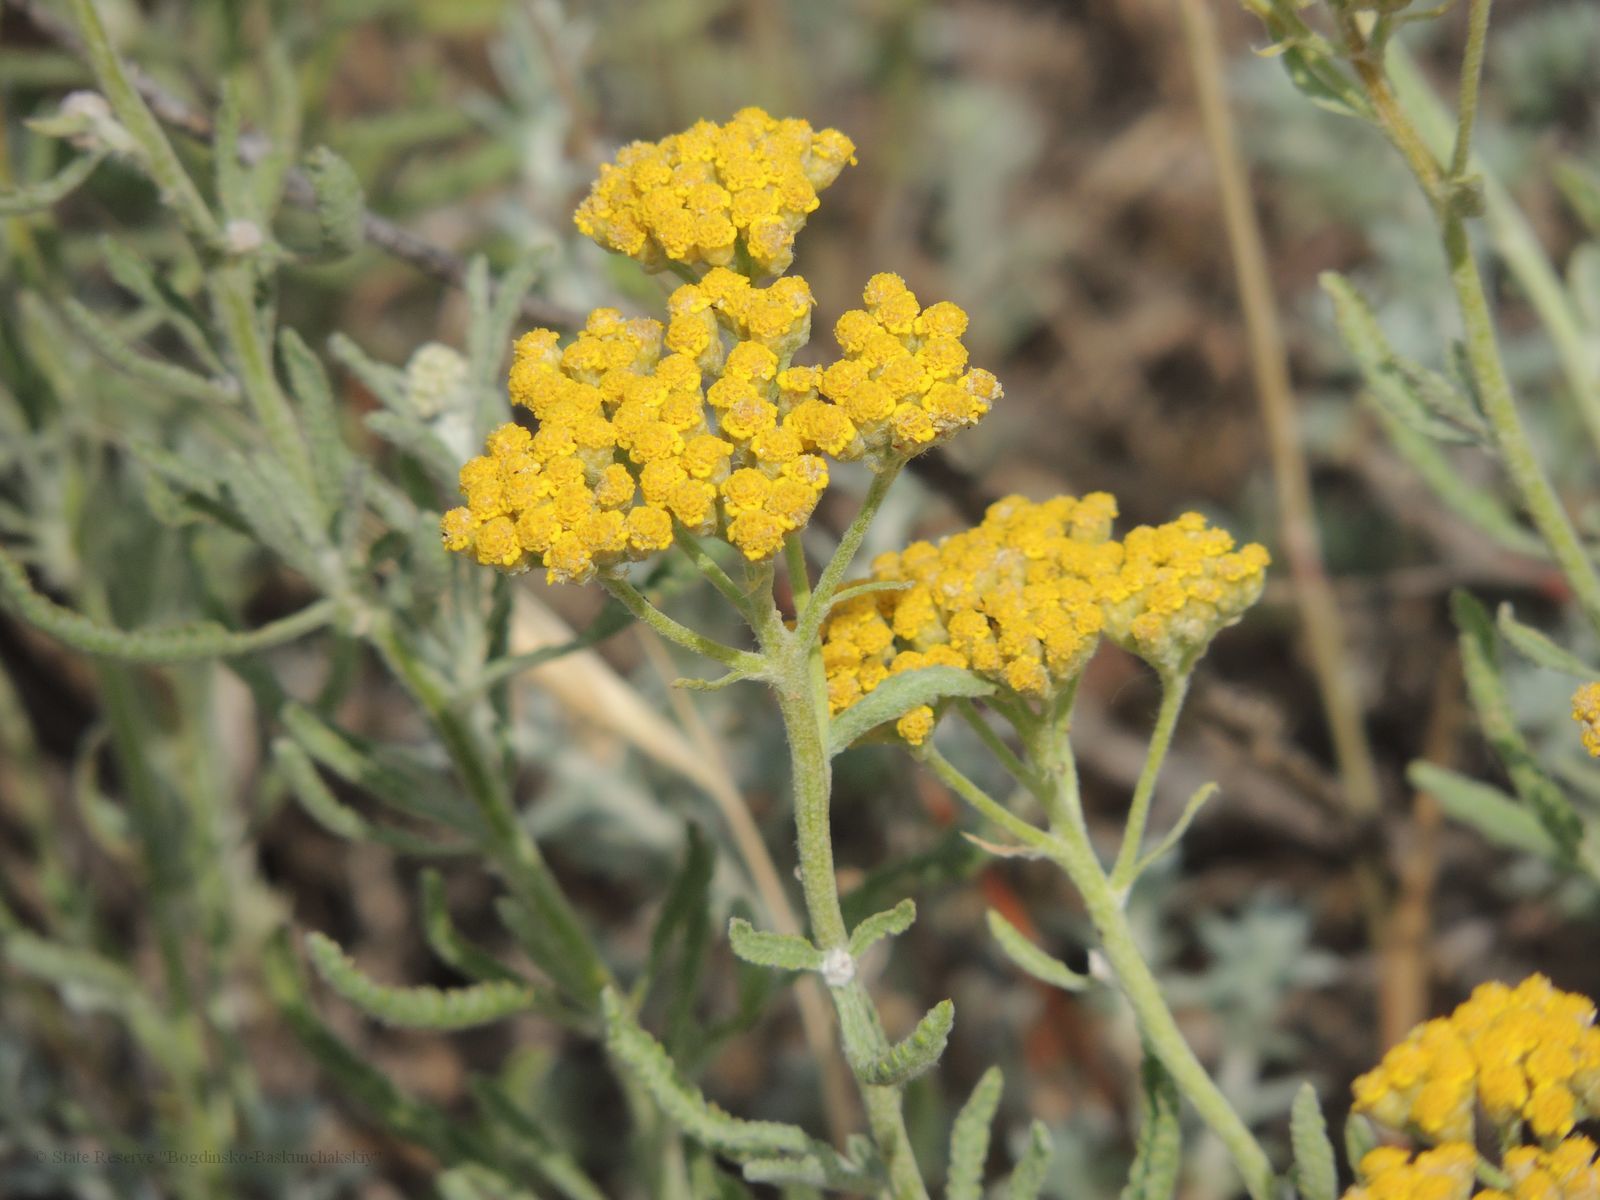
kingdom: Plantae
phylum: Tracheophyta
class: Magnoliopsida
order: Asterales
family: Asteraceae
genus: Achillea
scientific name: Achillea micrantha
